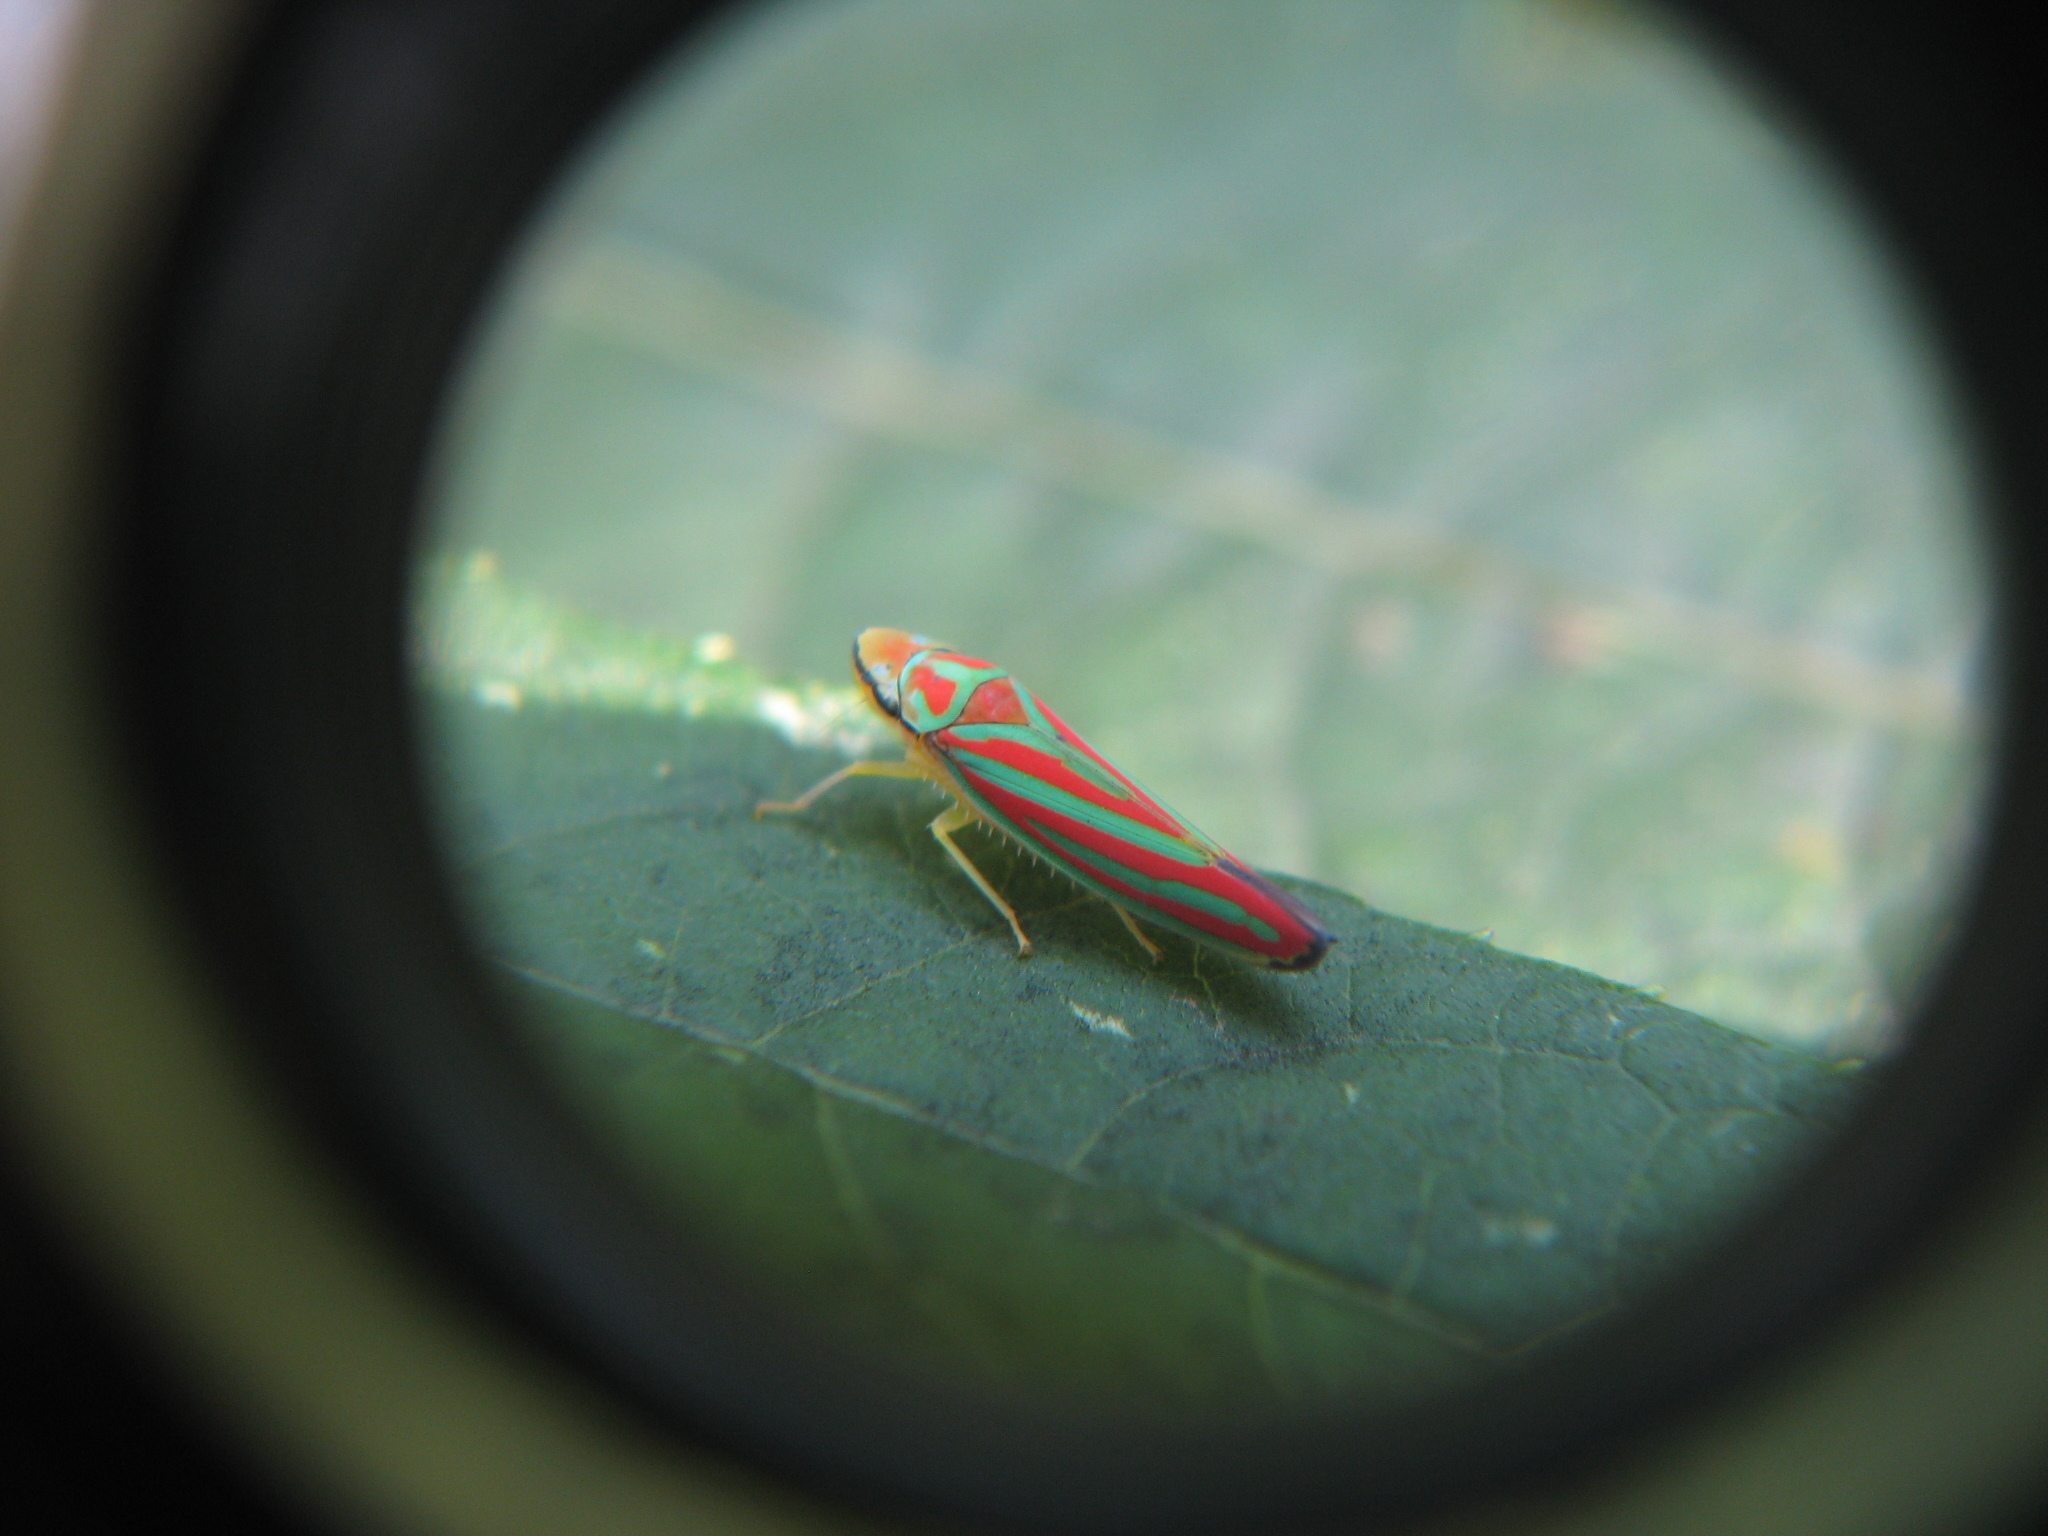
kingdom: Animalia
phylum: Arthropoda
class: Insecta
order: Hemiptera
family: Cicadellidae
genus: Graphocephala
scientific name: Graphocephala coccinea
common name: Candy-striped leafhopper
